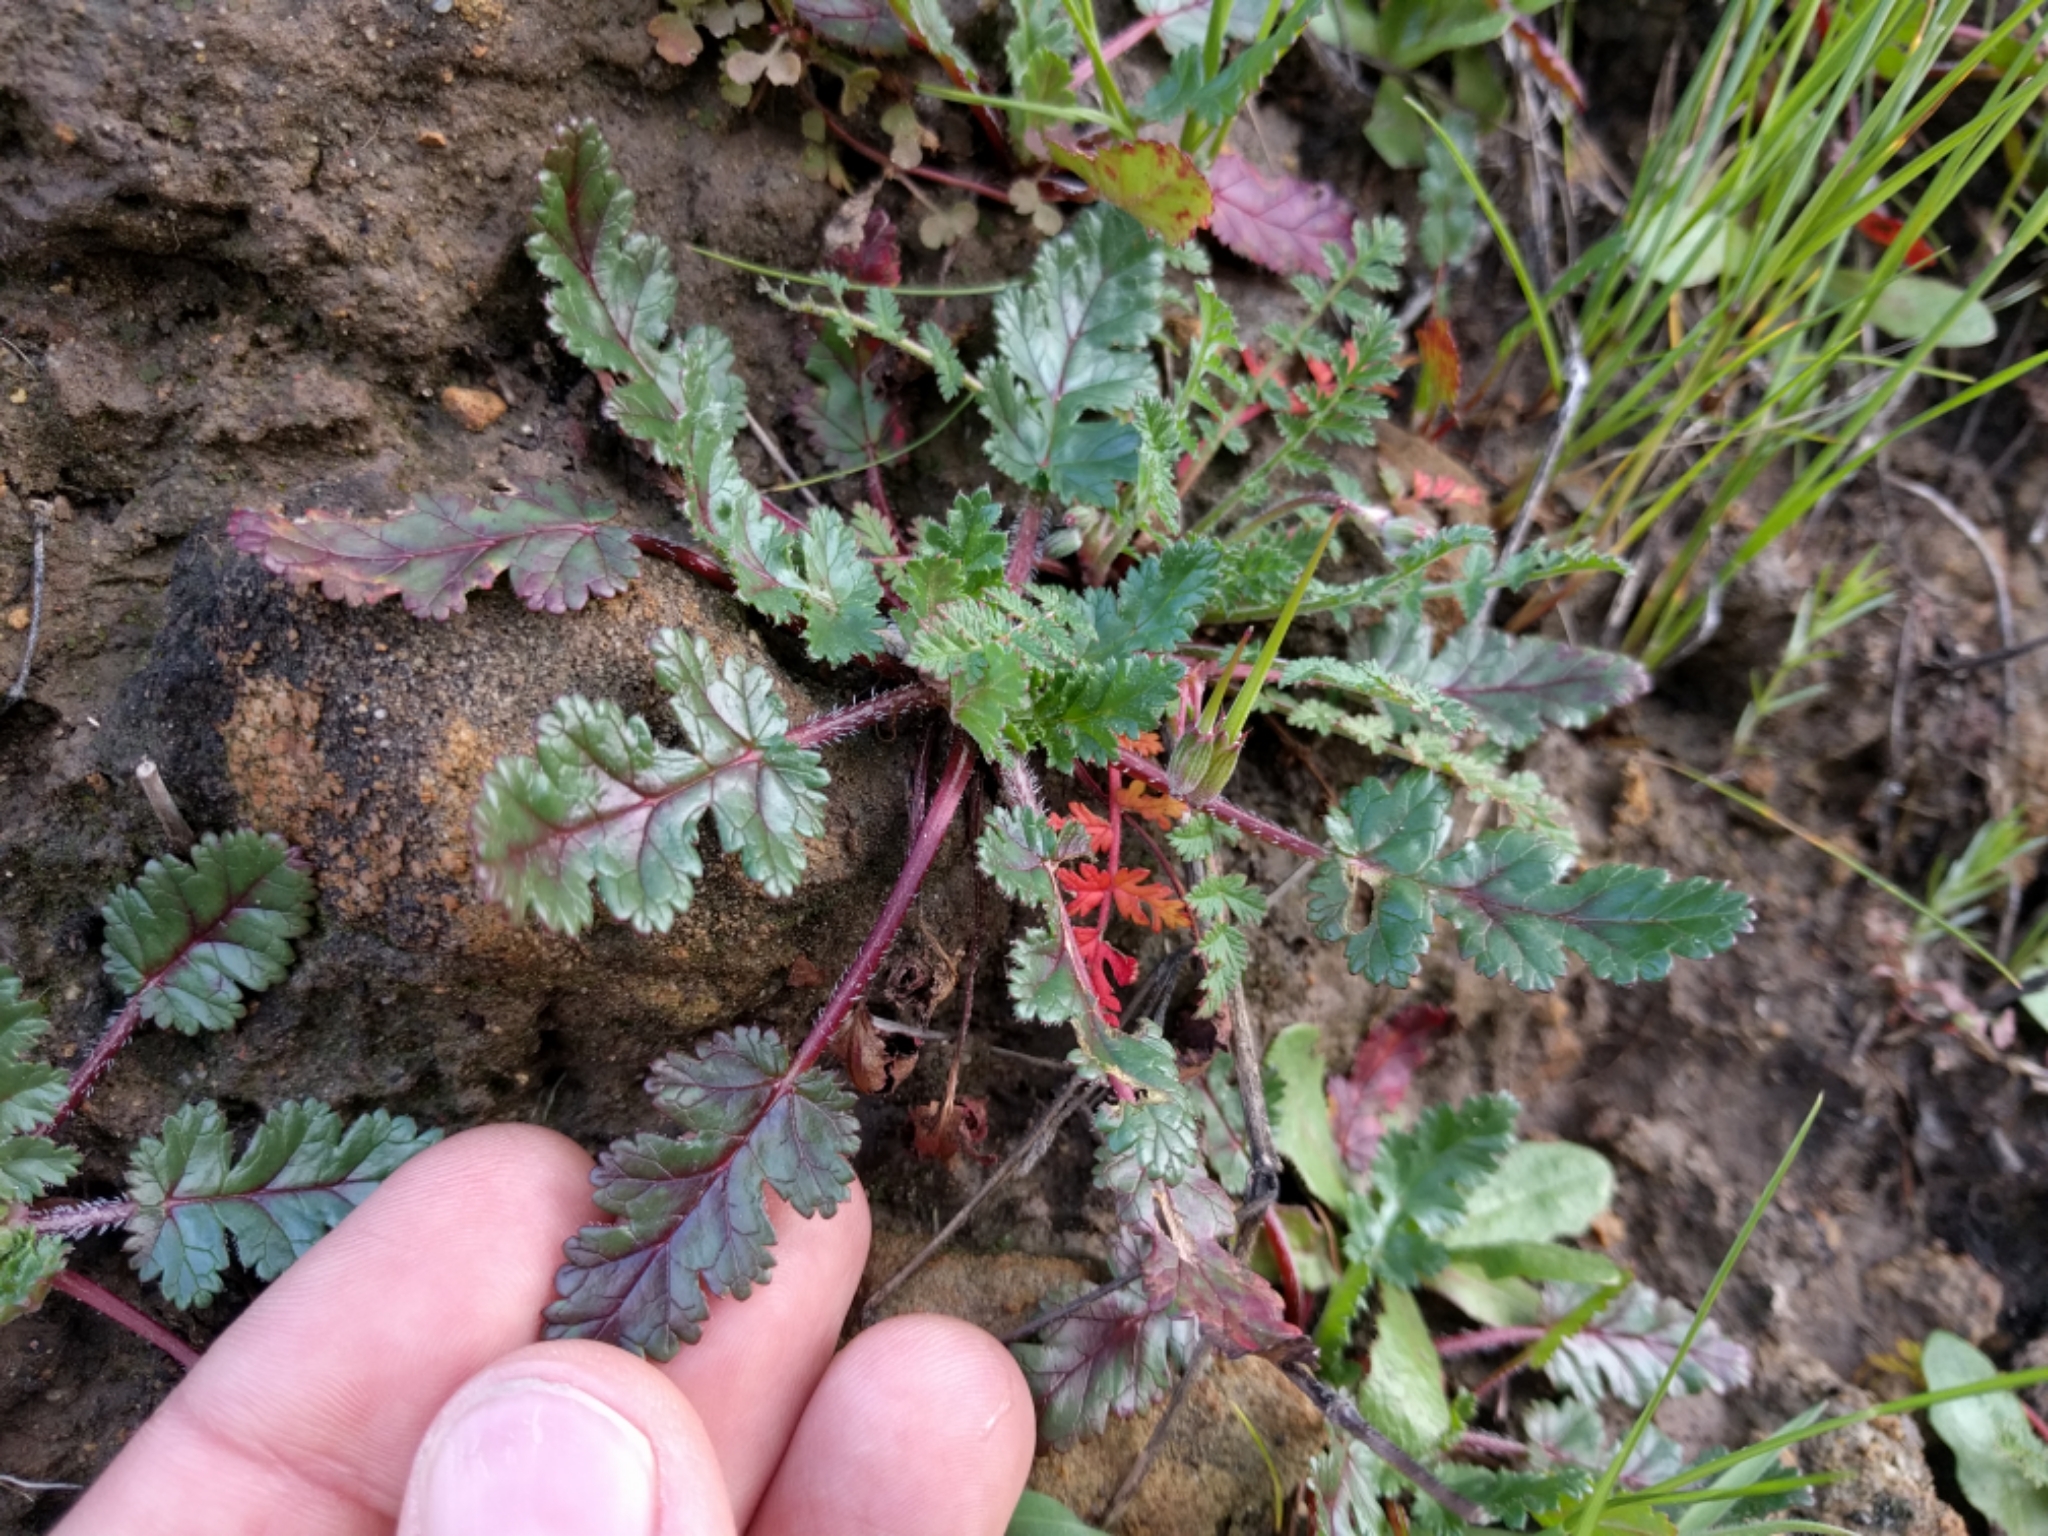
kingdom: Plantae
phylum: Tracheophyta
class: Magnoliopsida
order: Geraniales
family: Geraniaceae
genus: Erodium
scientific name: Erodium botrys
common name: Mediterranean stork's-bill
